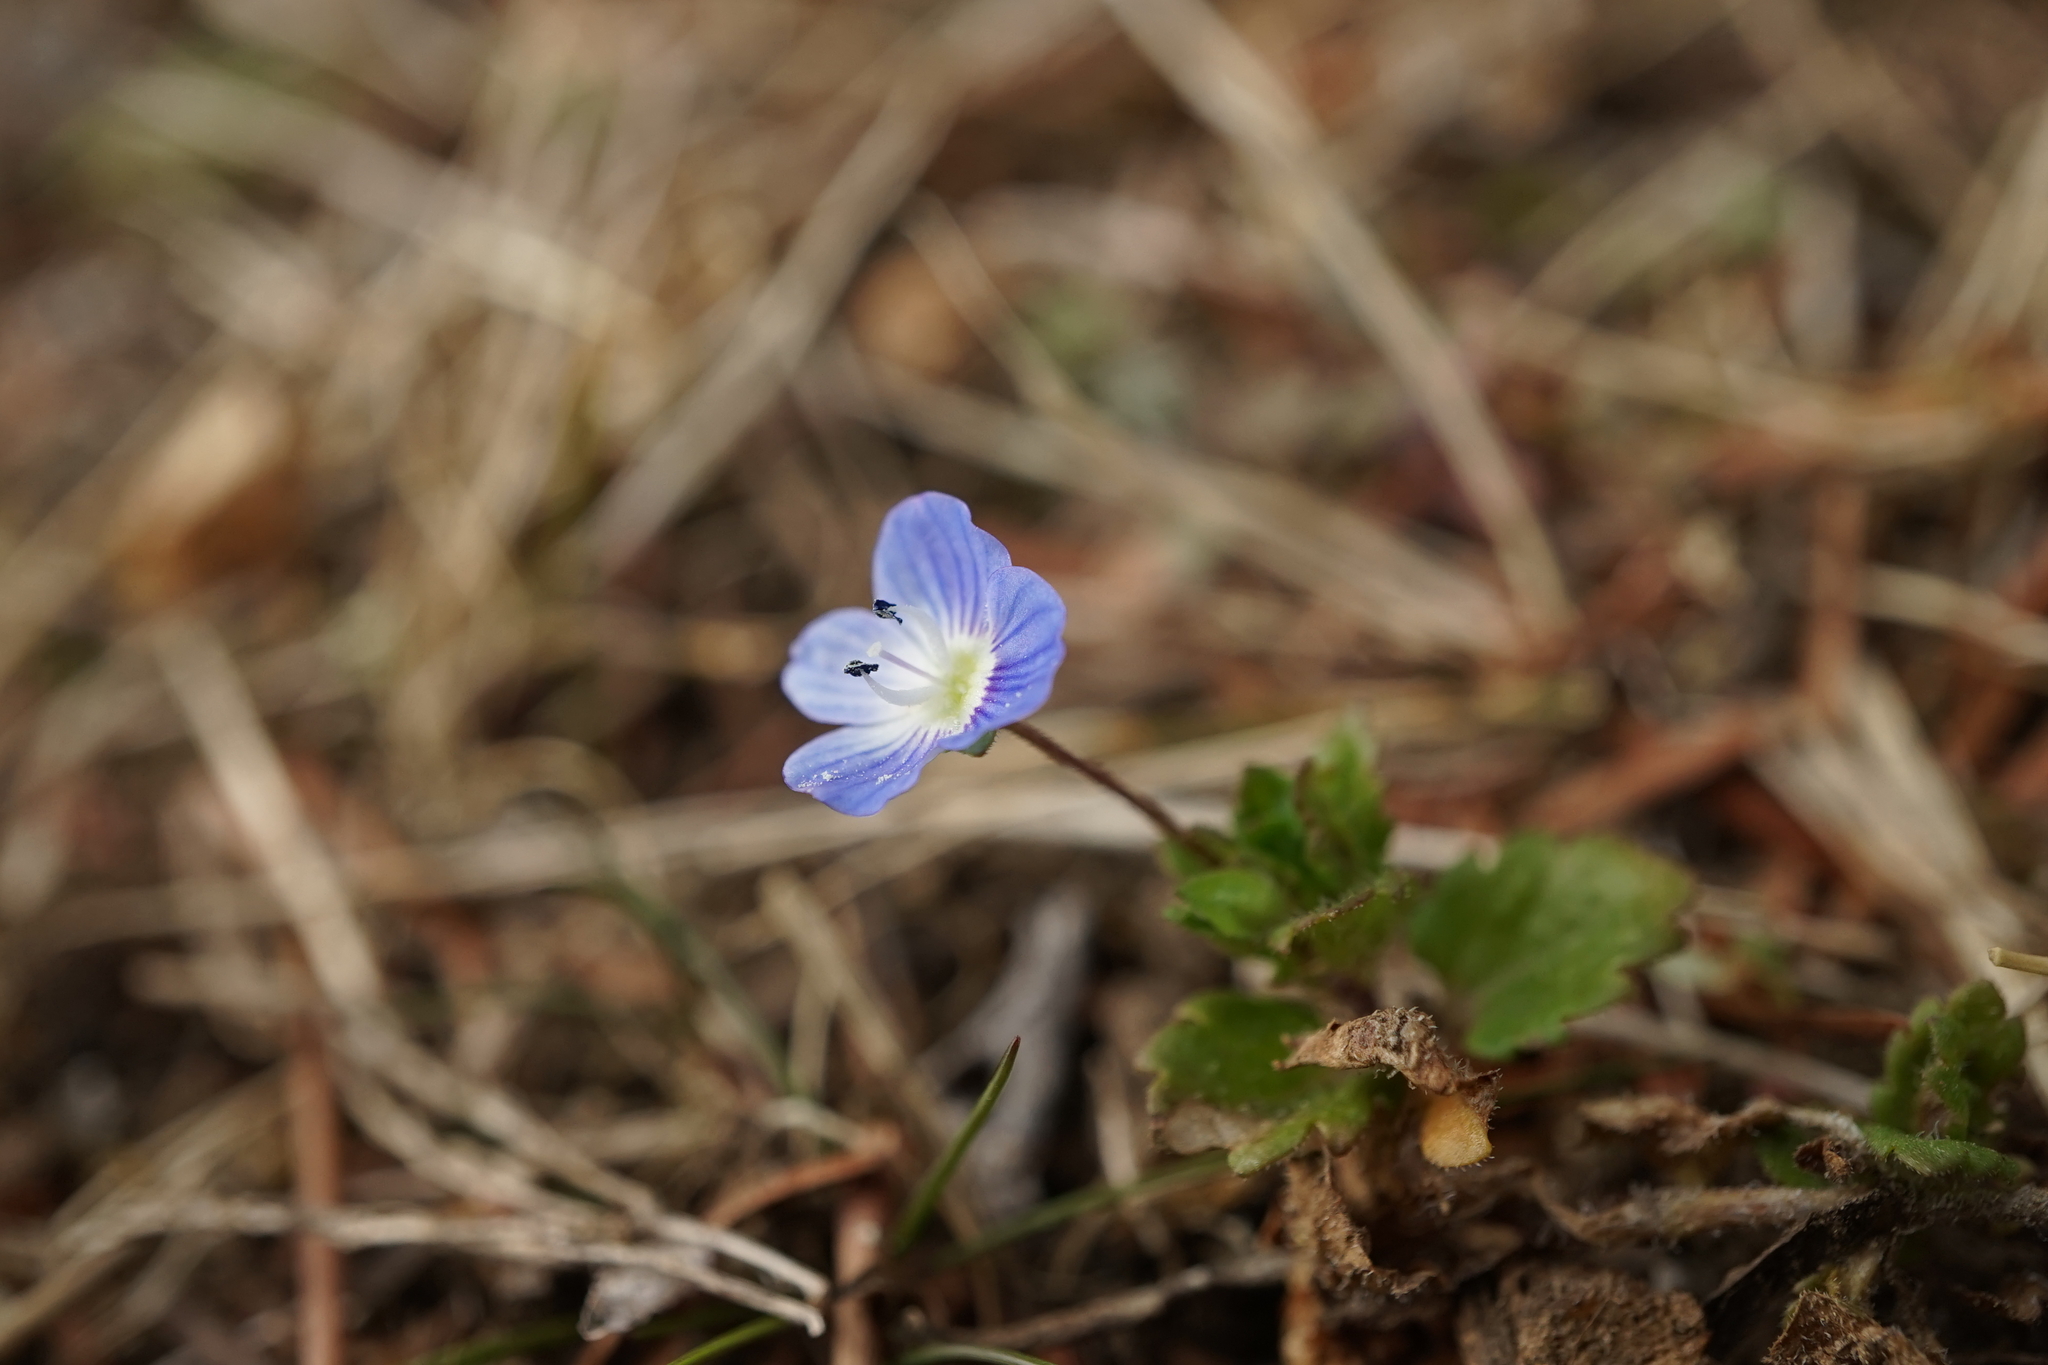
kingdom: Plantae
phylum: Tracheophyta
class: Magnoliopsida
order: Lamiales
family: Plantaginaceae
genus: Veronica
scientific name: Veronica persica
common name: Common field-speedwell
